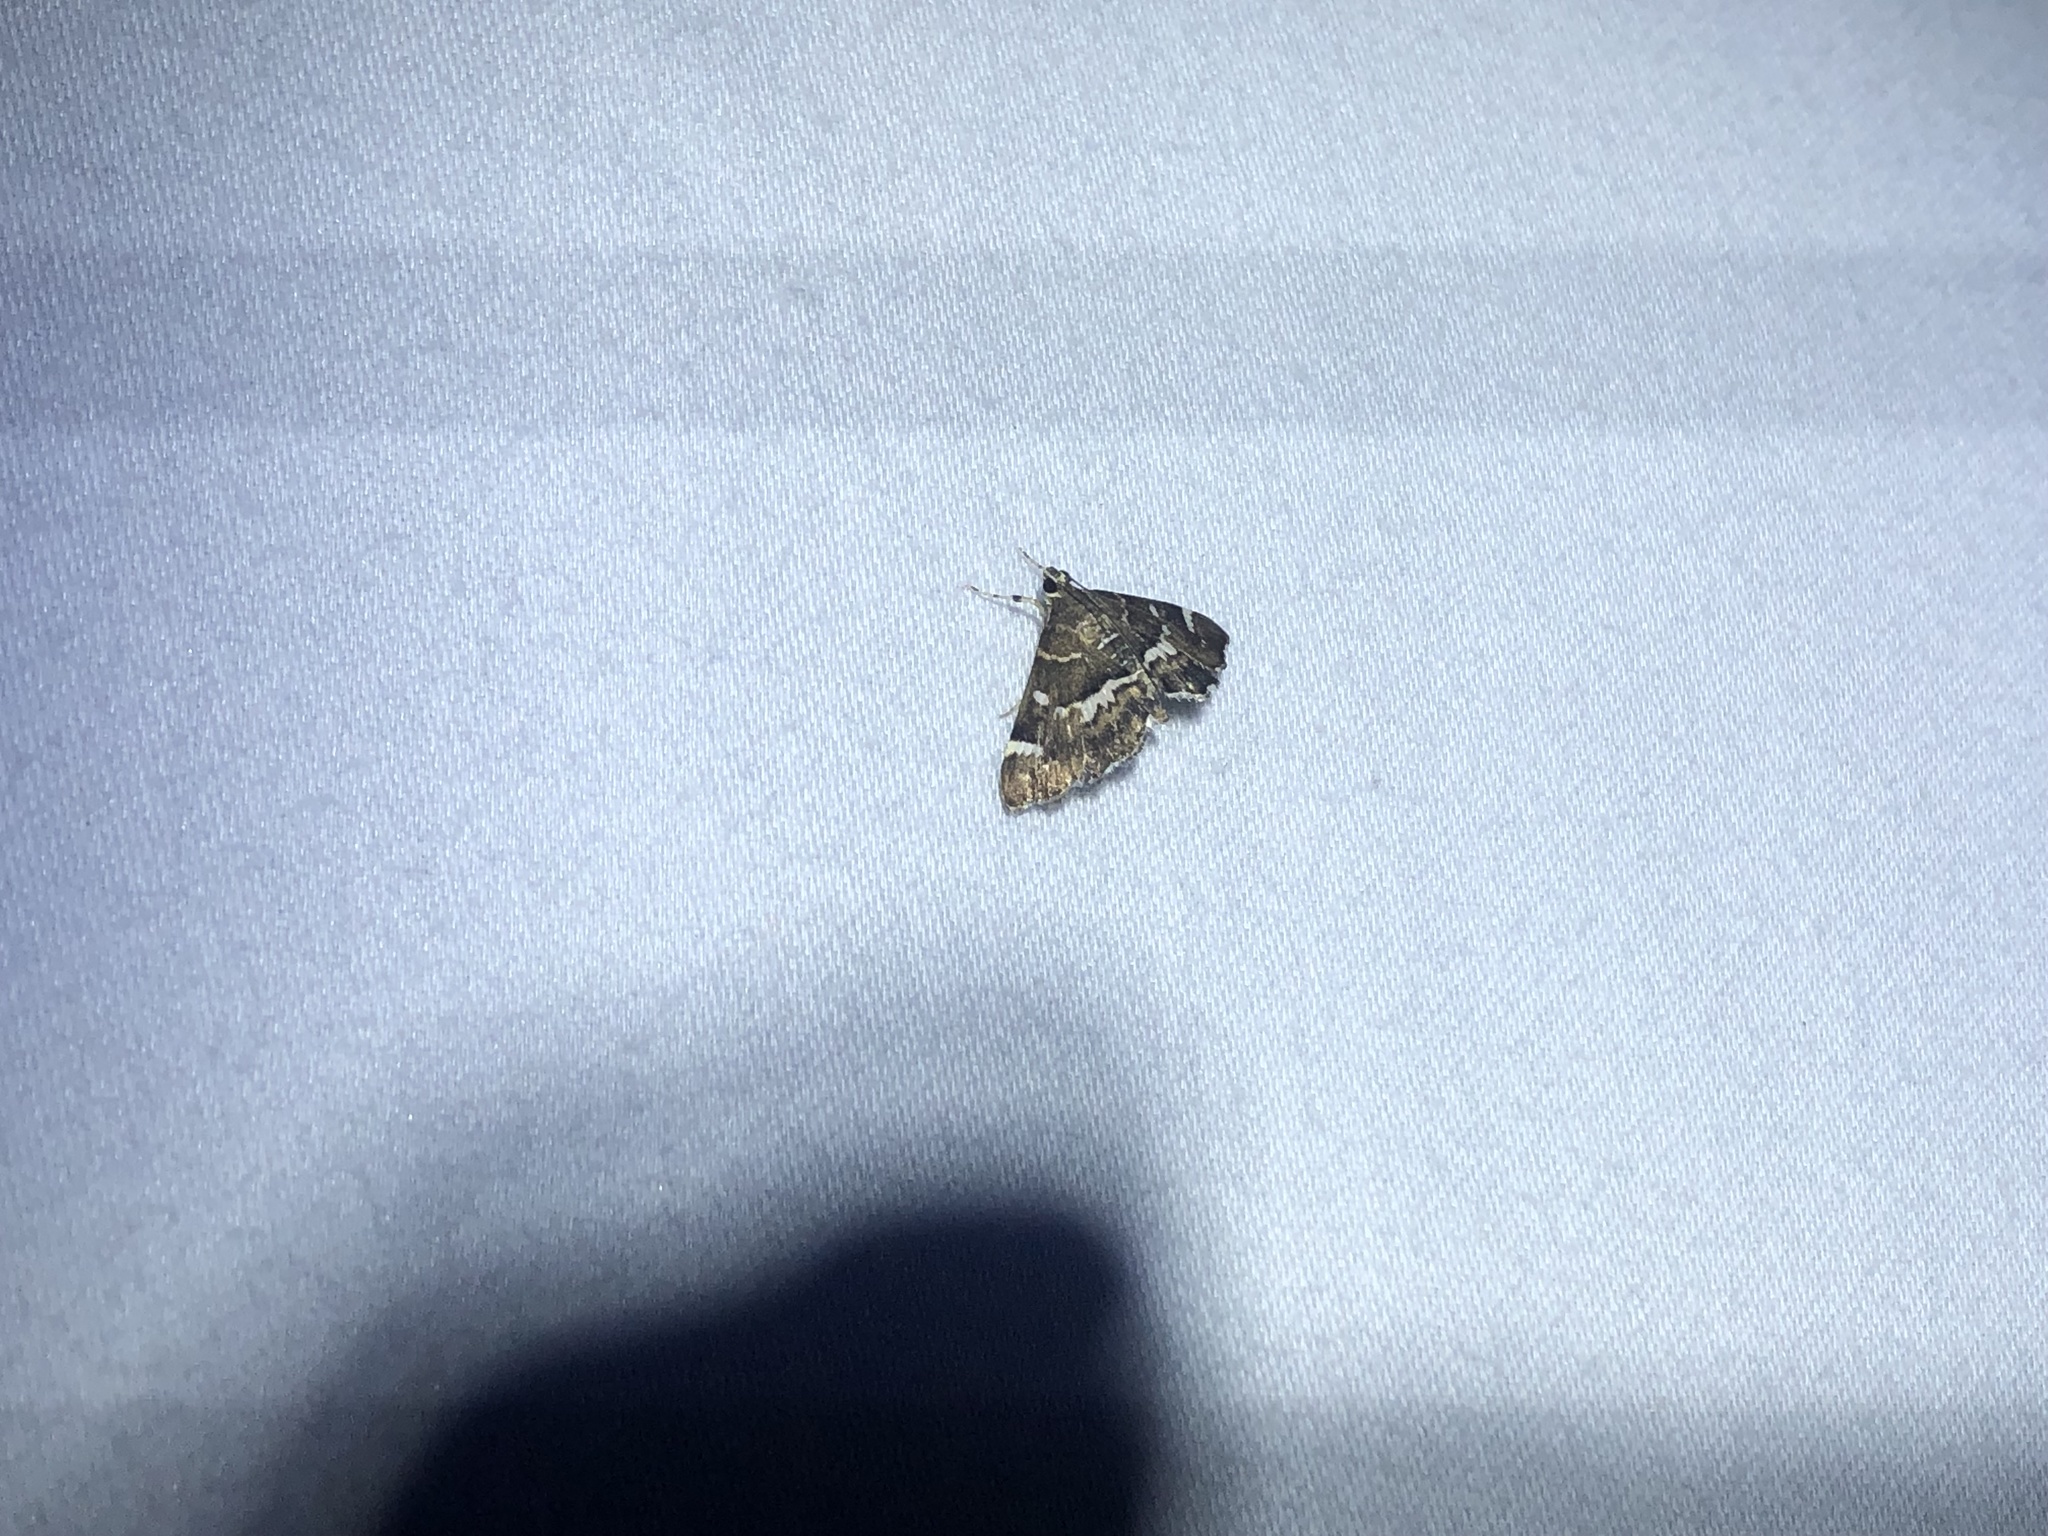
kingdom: Animalia
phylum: Arthropoda
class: Insecta
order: Lepidoptera
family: Crambidae
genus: Hymenia
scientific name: Hymenia perspectalis
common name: Spotted beet webworm
